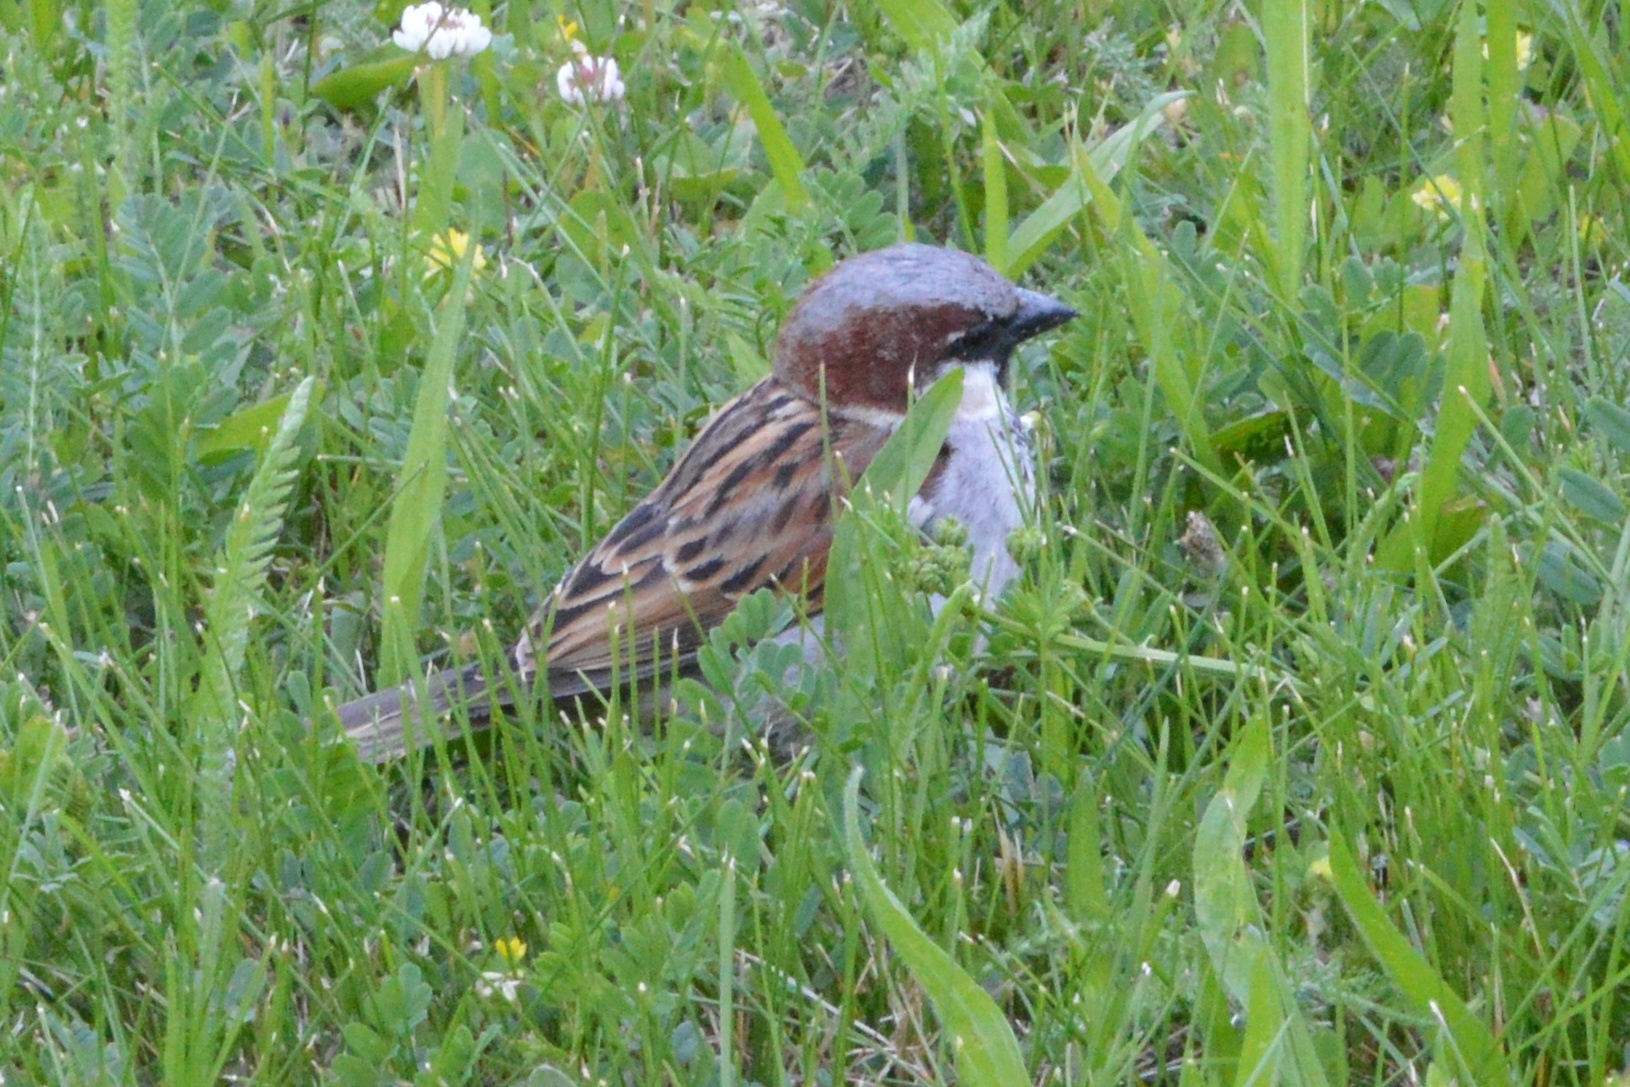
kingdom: Animalia
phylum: Chordata
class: Aves
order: Passeriformes
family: Passeridae
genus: Passer
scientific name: Passer domesticus
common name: House sparrow
